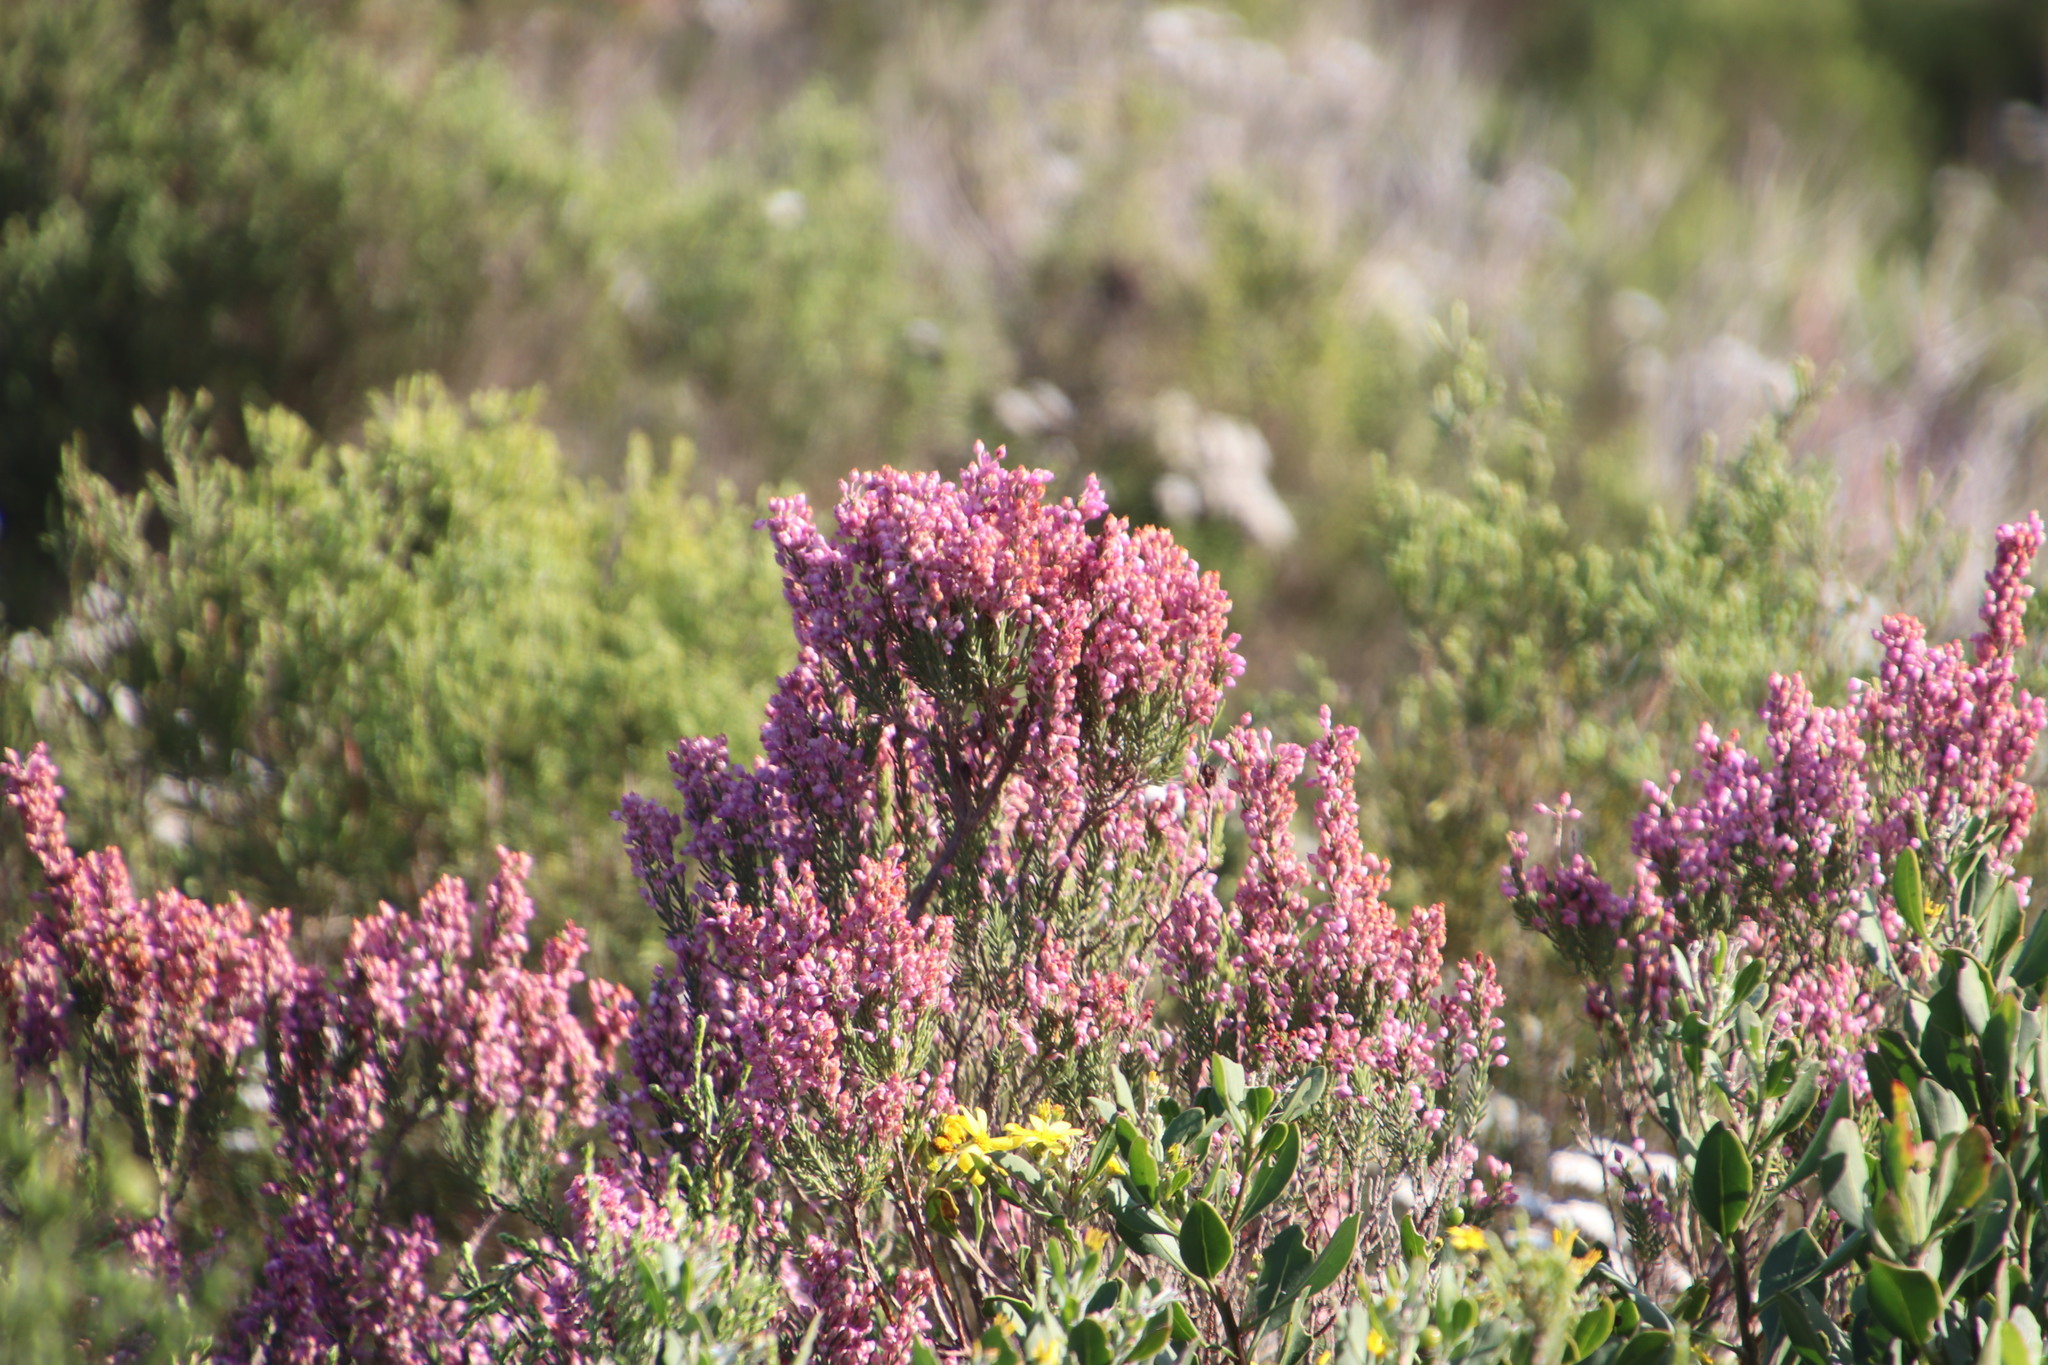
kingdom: Plantae
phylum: Tracheophyta
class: Magnoliopsida
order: Ericales
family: Ericaceae
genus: Erica
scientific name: Erica irregularis
